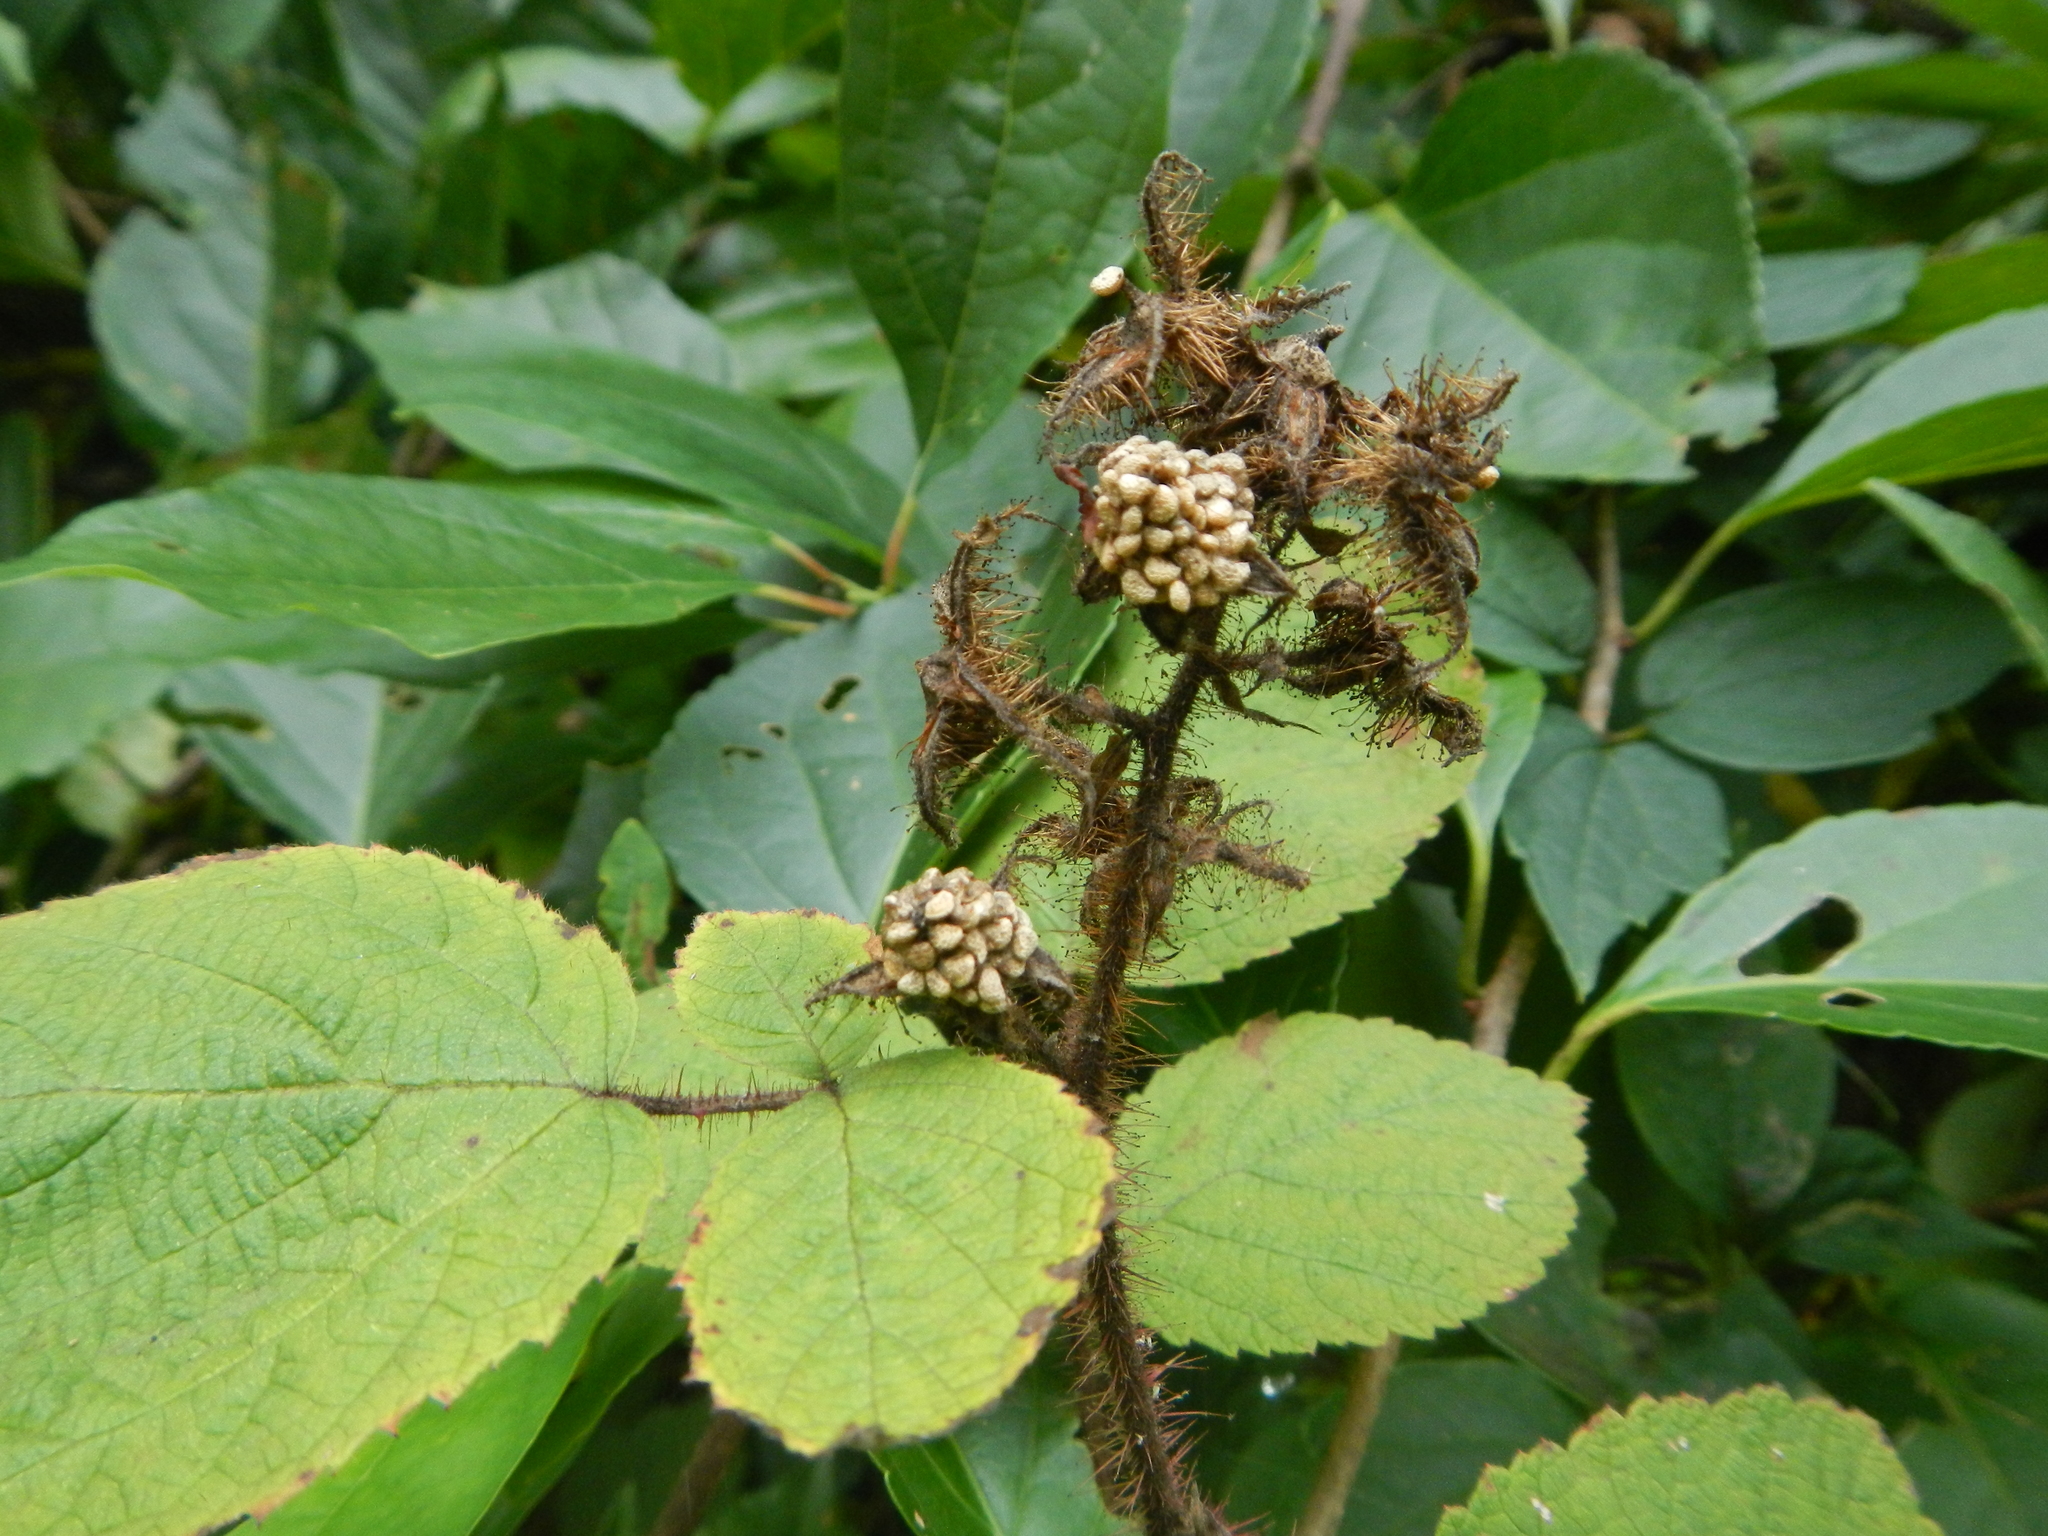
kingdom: Plantae
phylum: Tracheophyta
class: Magnoliopsida
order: Rosales
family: Rosaceae
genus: Rubus
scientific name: Rubus phoenicolasius
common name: Japanese wineberry
